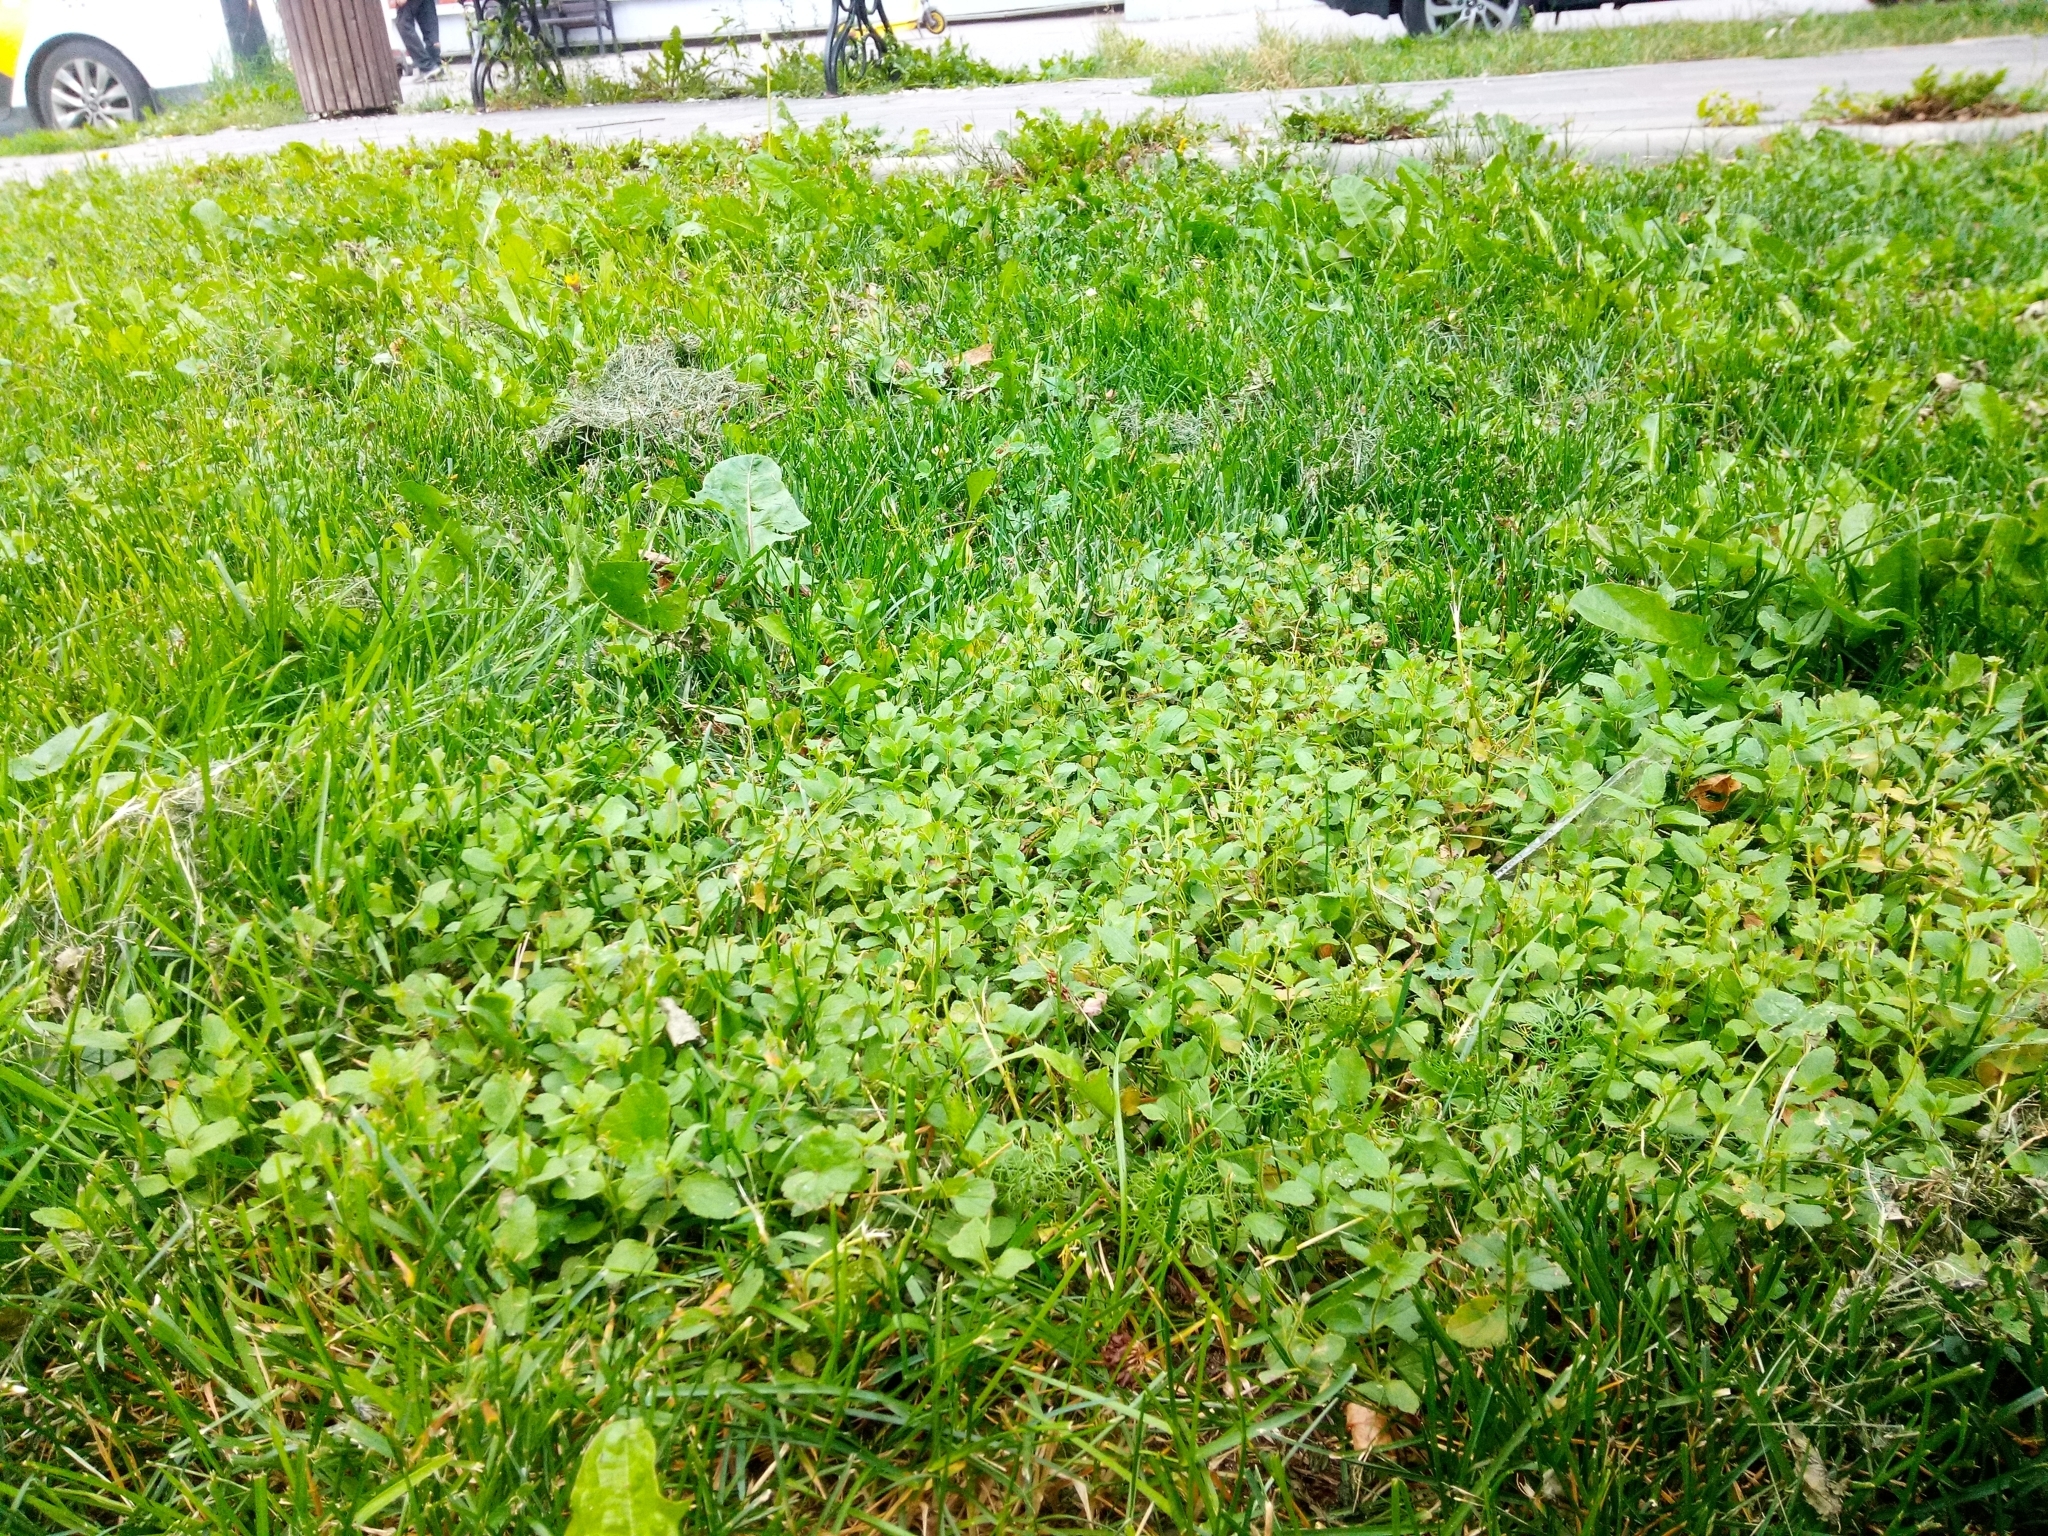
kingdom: Plantae
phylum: Tracheophyta
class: Magnoliopsida
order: Lamiales
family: Plantaginaceae
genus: Veronica
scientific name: Veronica chamaedrys
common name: Germander speedwell
